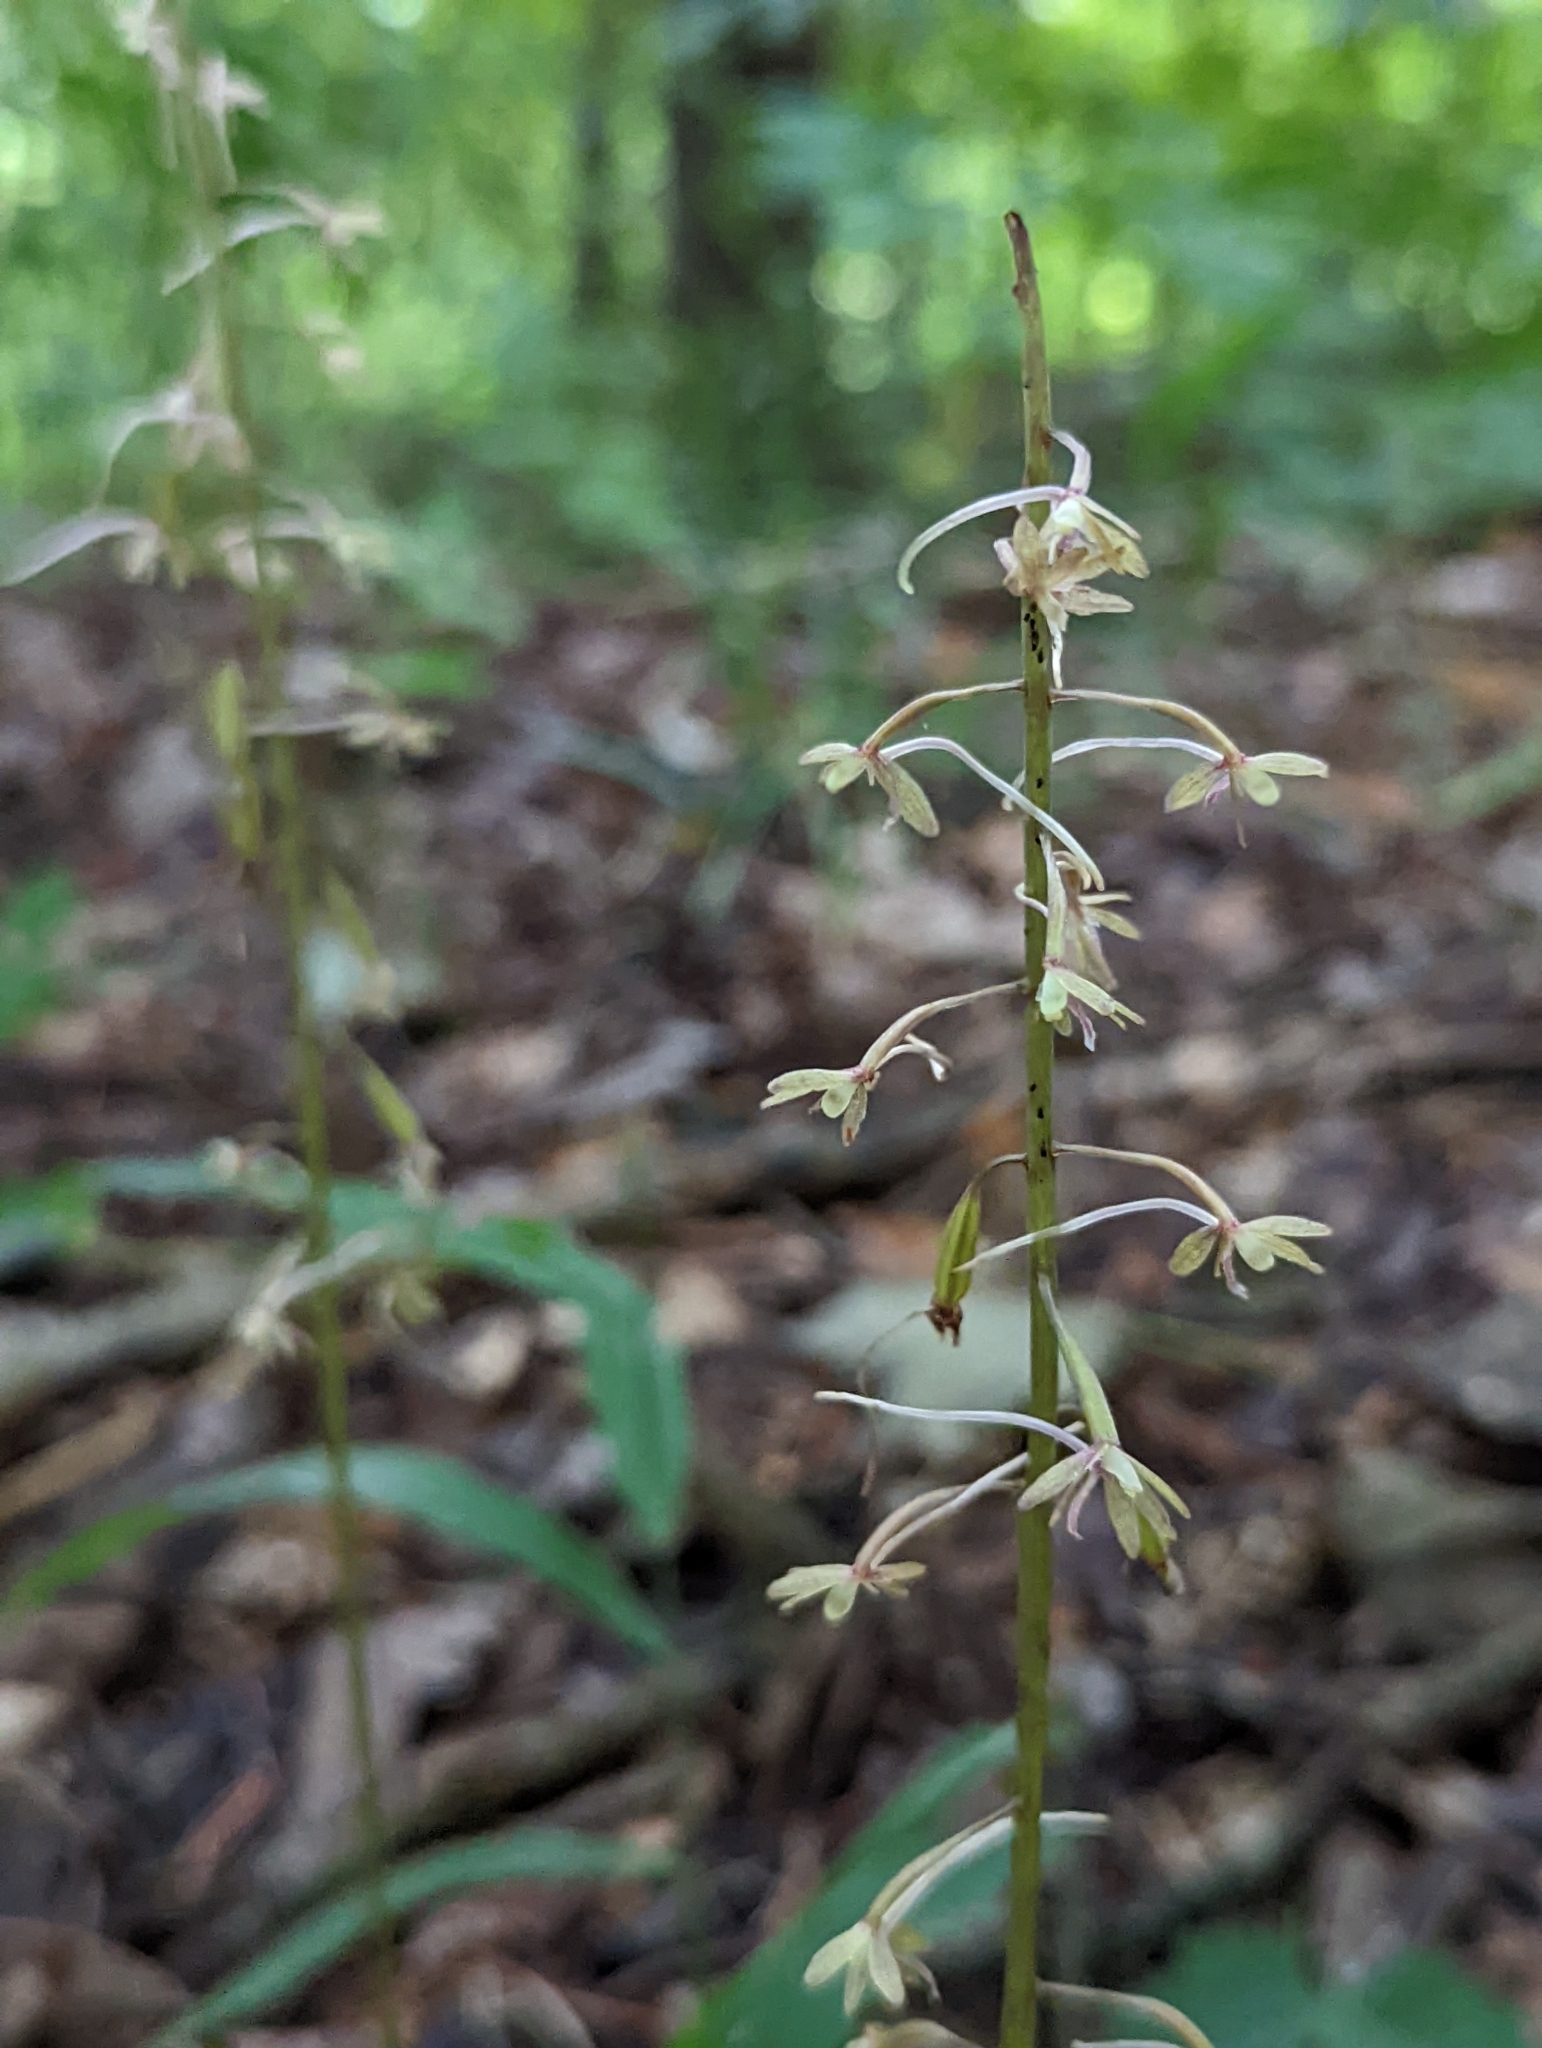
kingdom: Plantae
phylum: Tracheophyta
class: Liliopsida
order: Asparagales
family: Orchidaceae
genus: Tipularia
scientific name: Tipularia discolor
